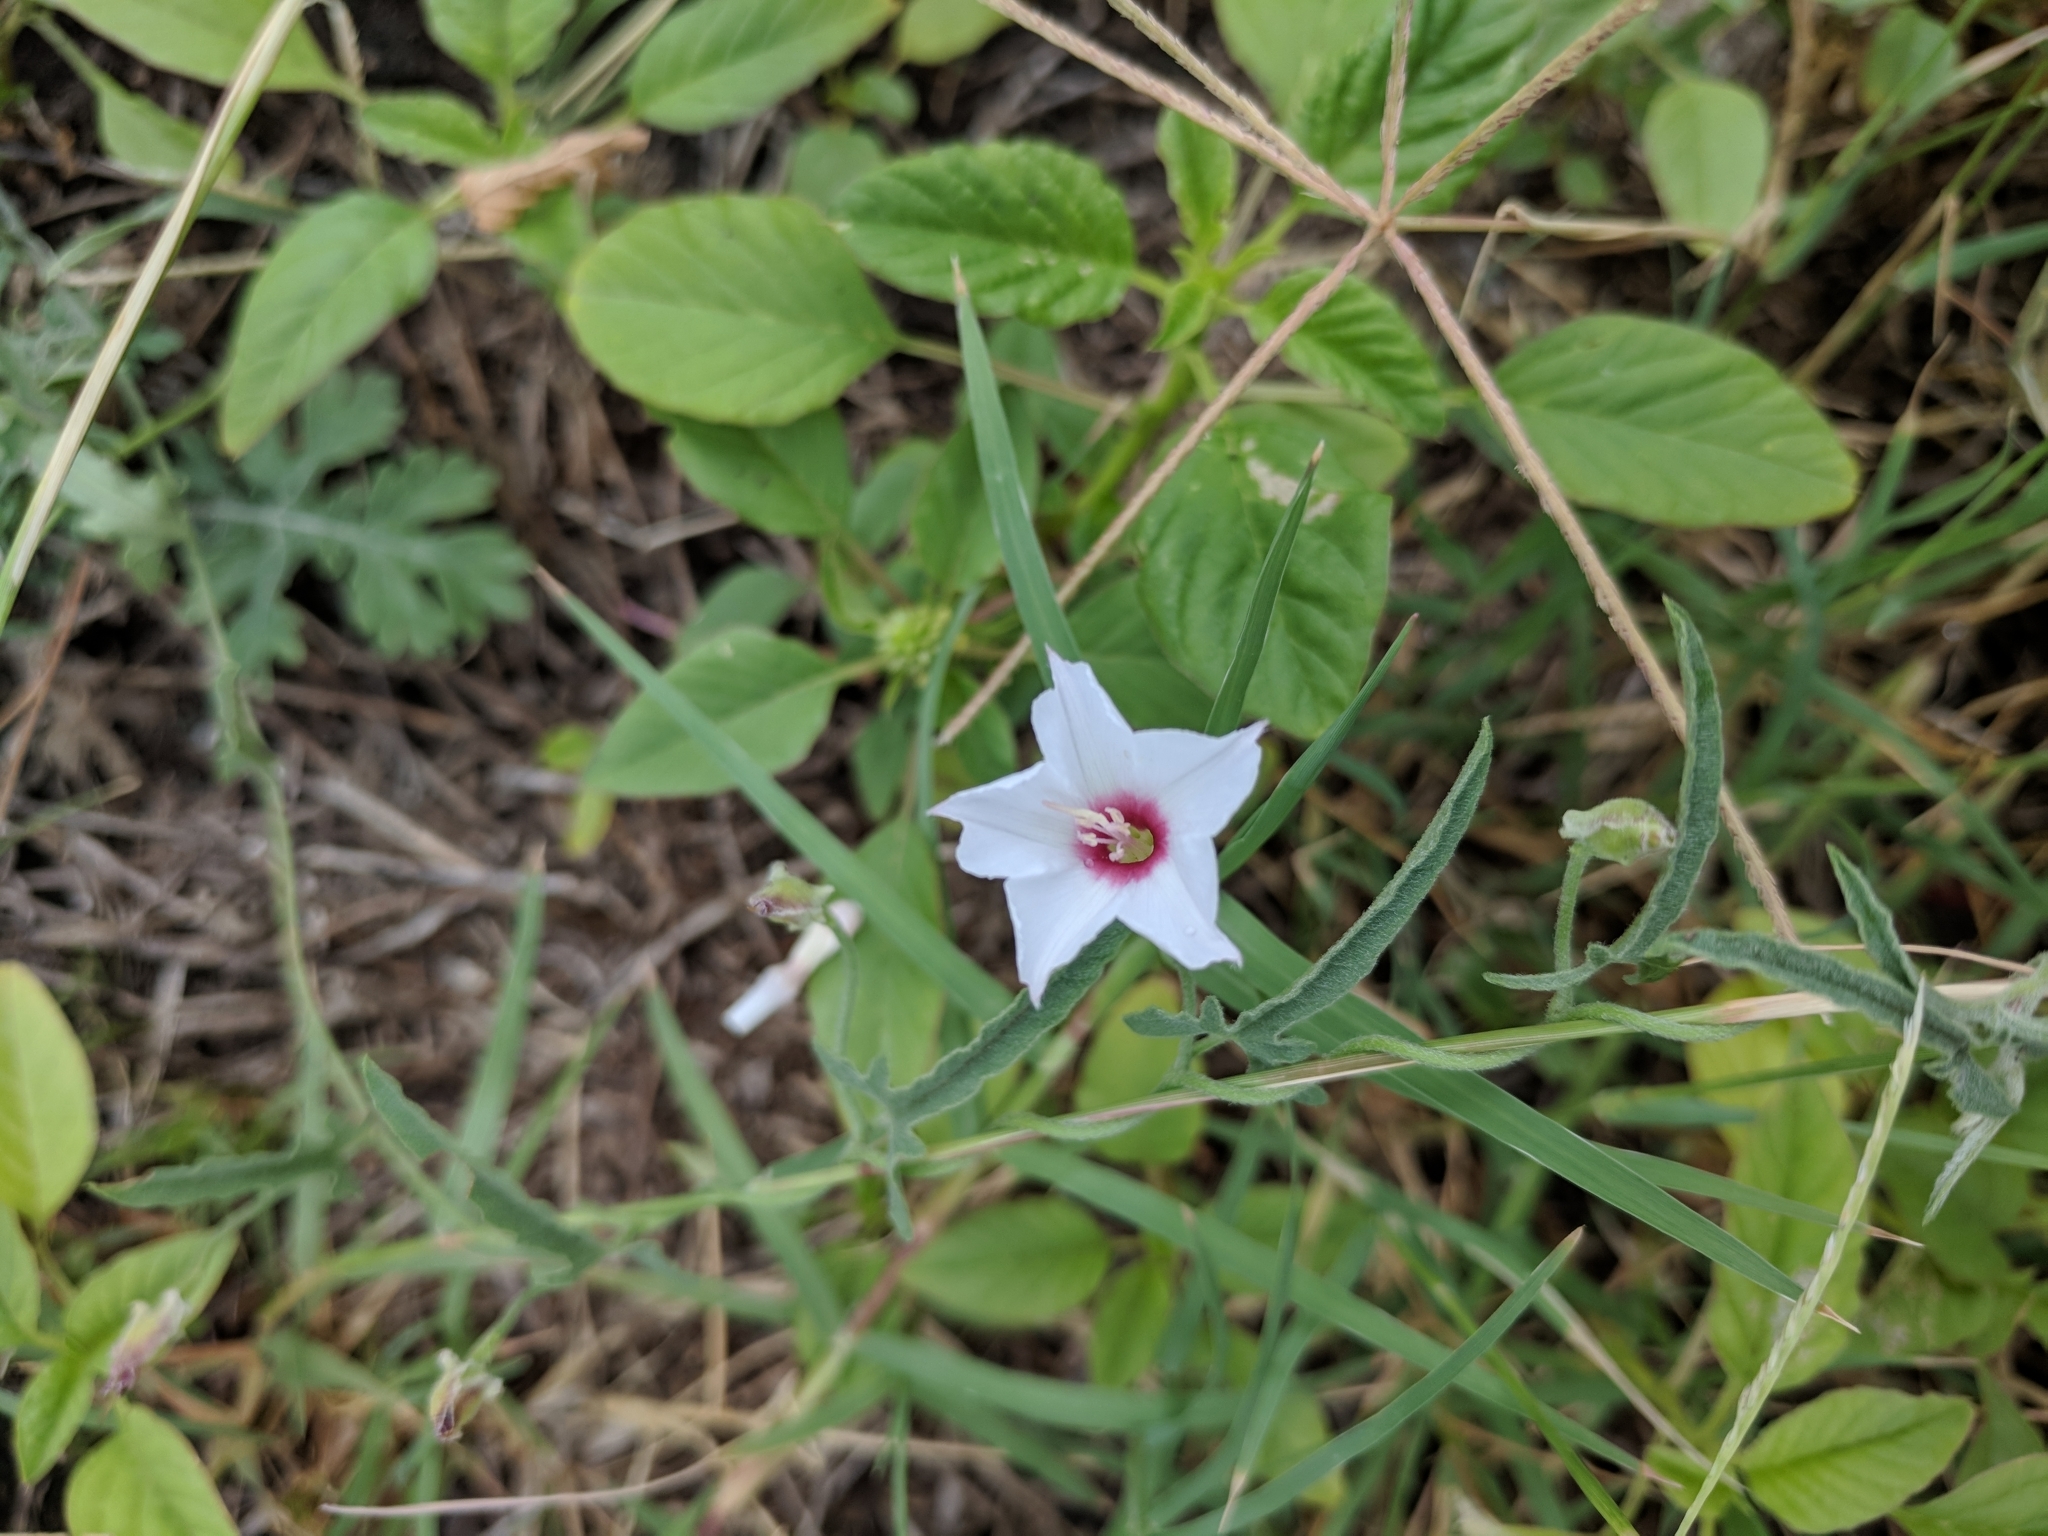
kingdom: Plantae
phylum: Tracheophyta
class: Magnoliopsida
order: Solanales
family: Convolvulaceae
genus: Convolvulus
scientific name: Convolvulus equitans
